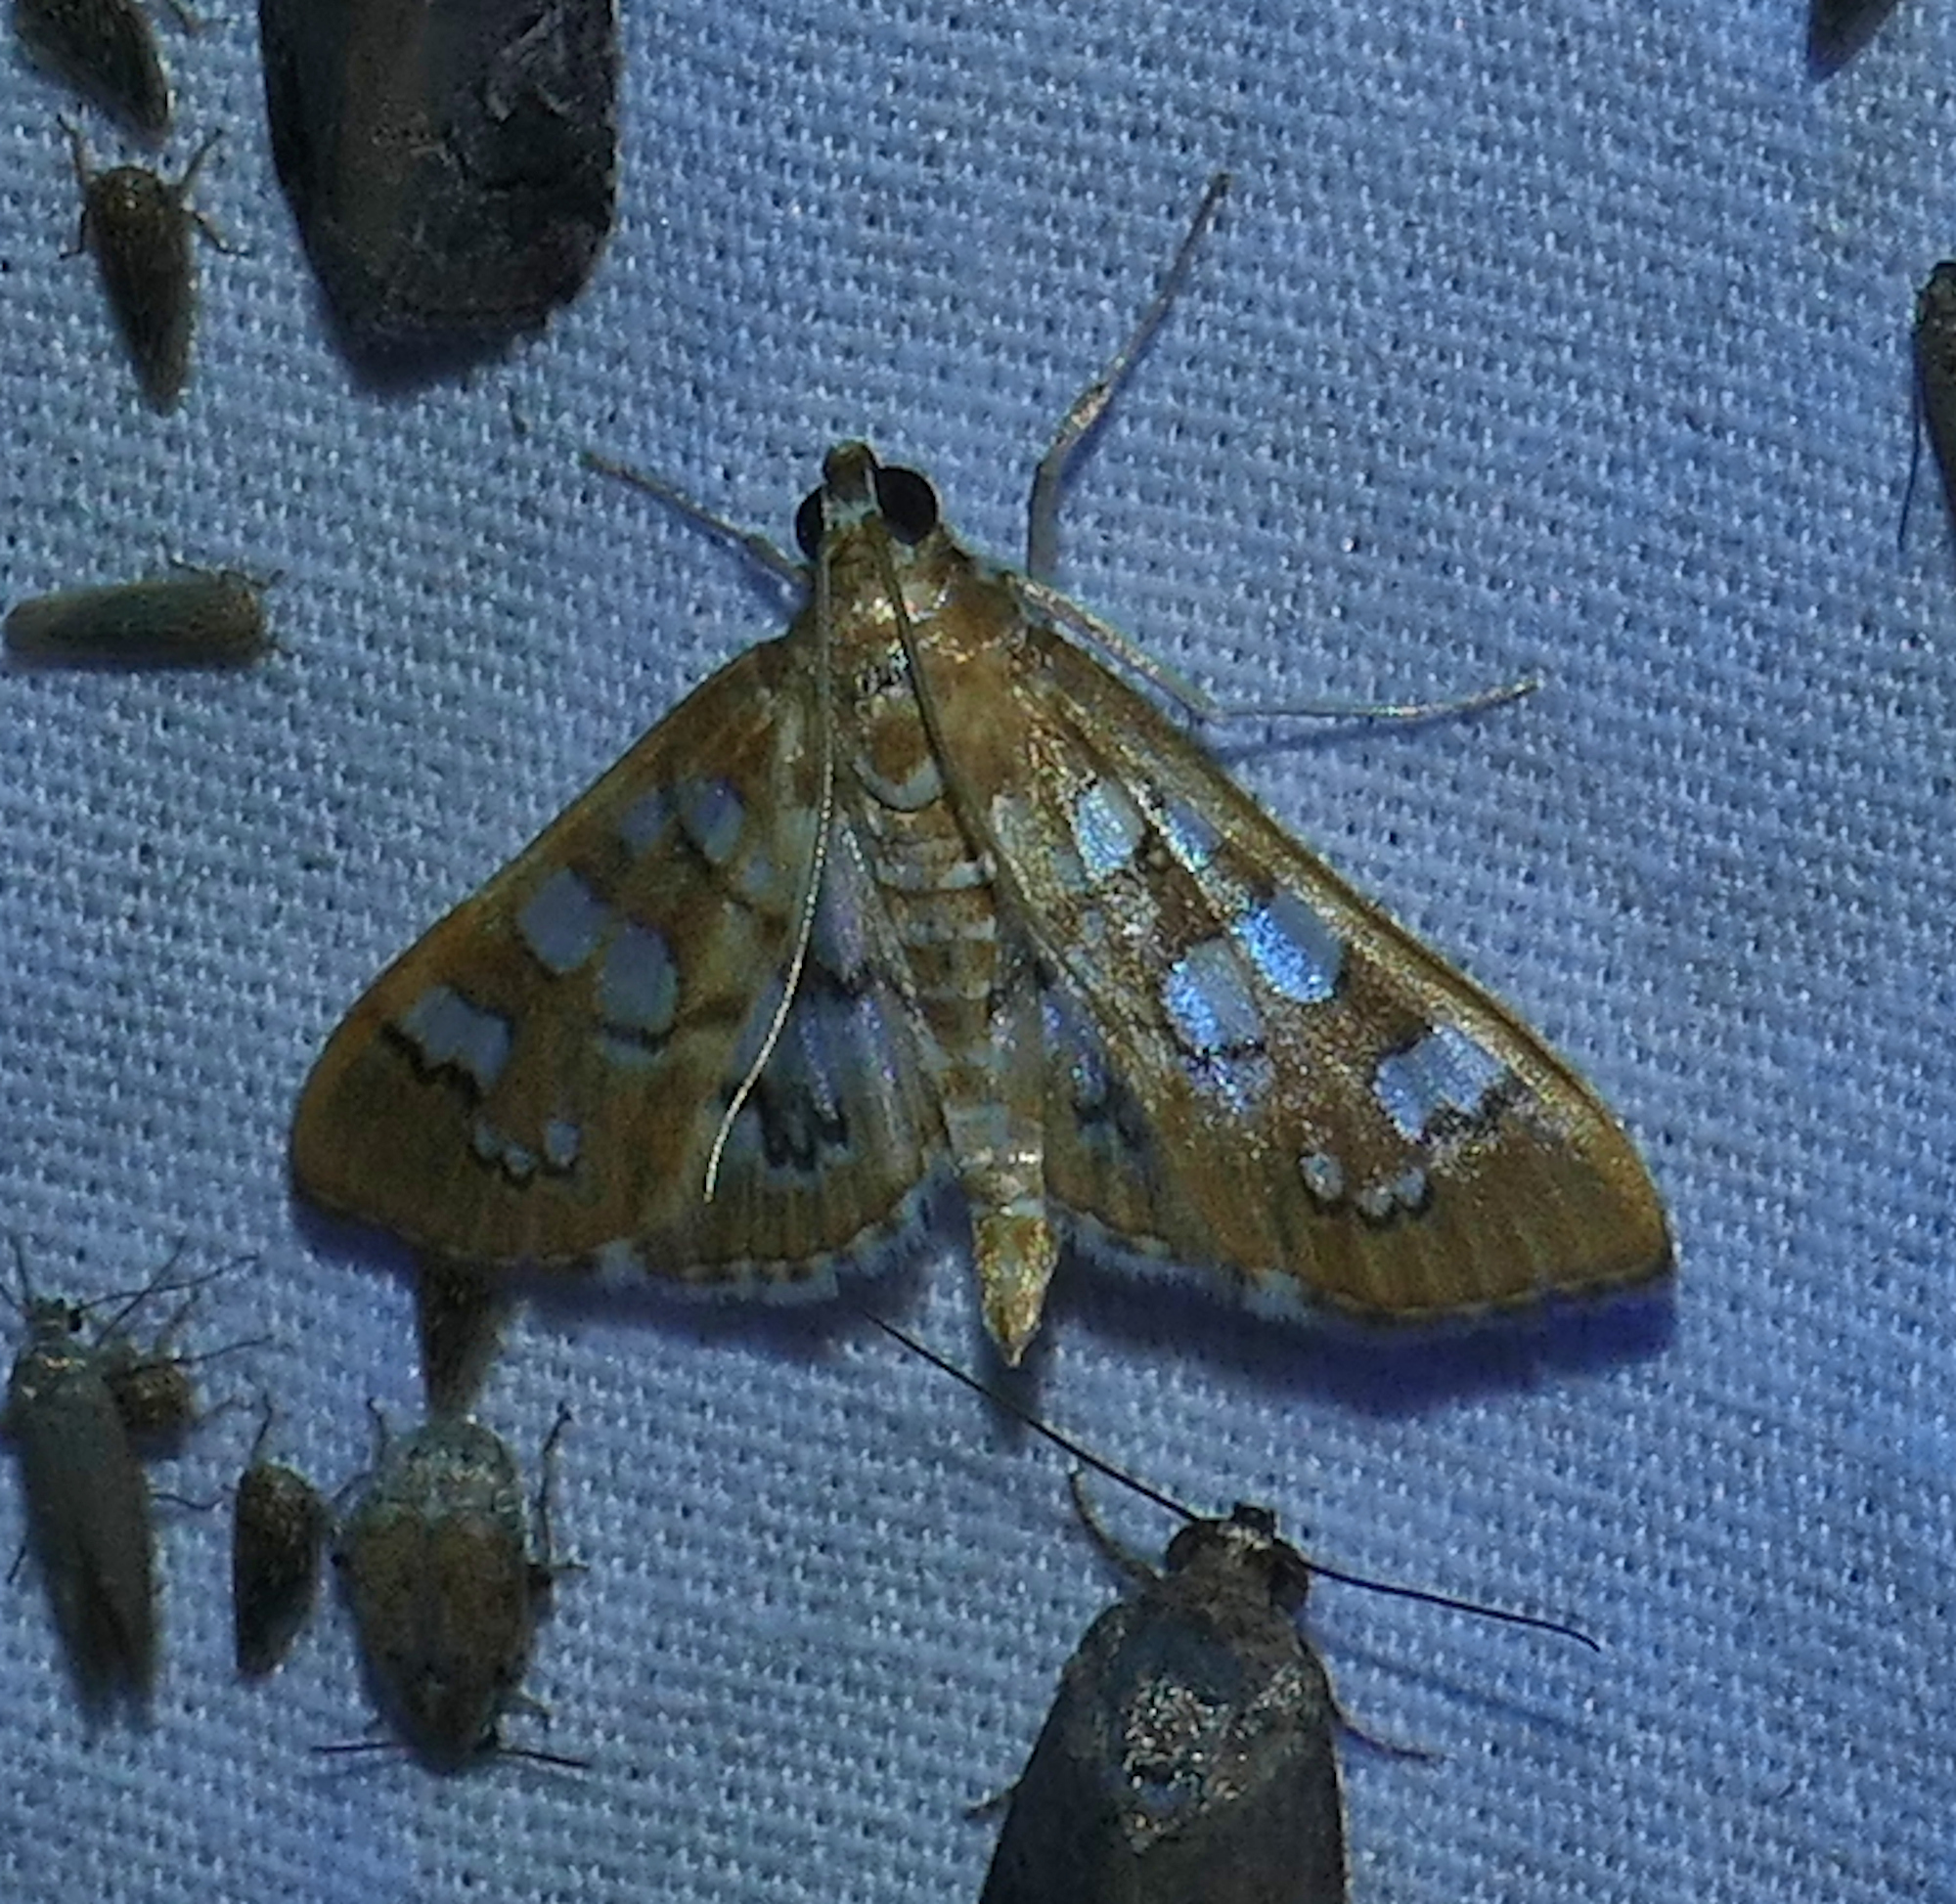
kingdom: Animalia
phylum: Arthropoda
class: Insecta
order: Lepidoptera
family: Crambidae
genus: Samea
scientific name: Samea baccatalis
